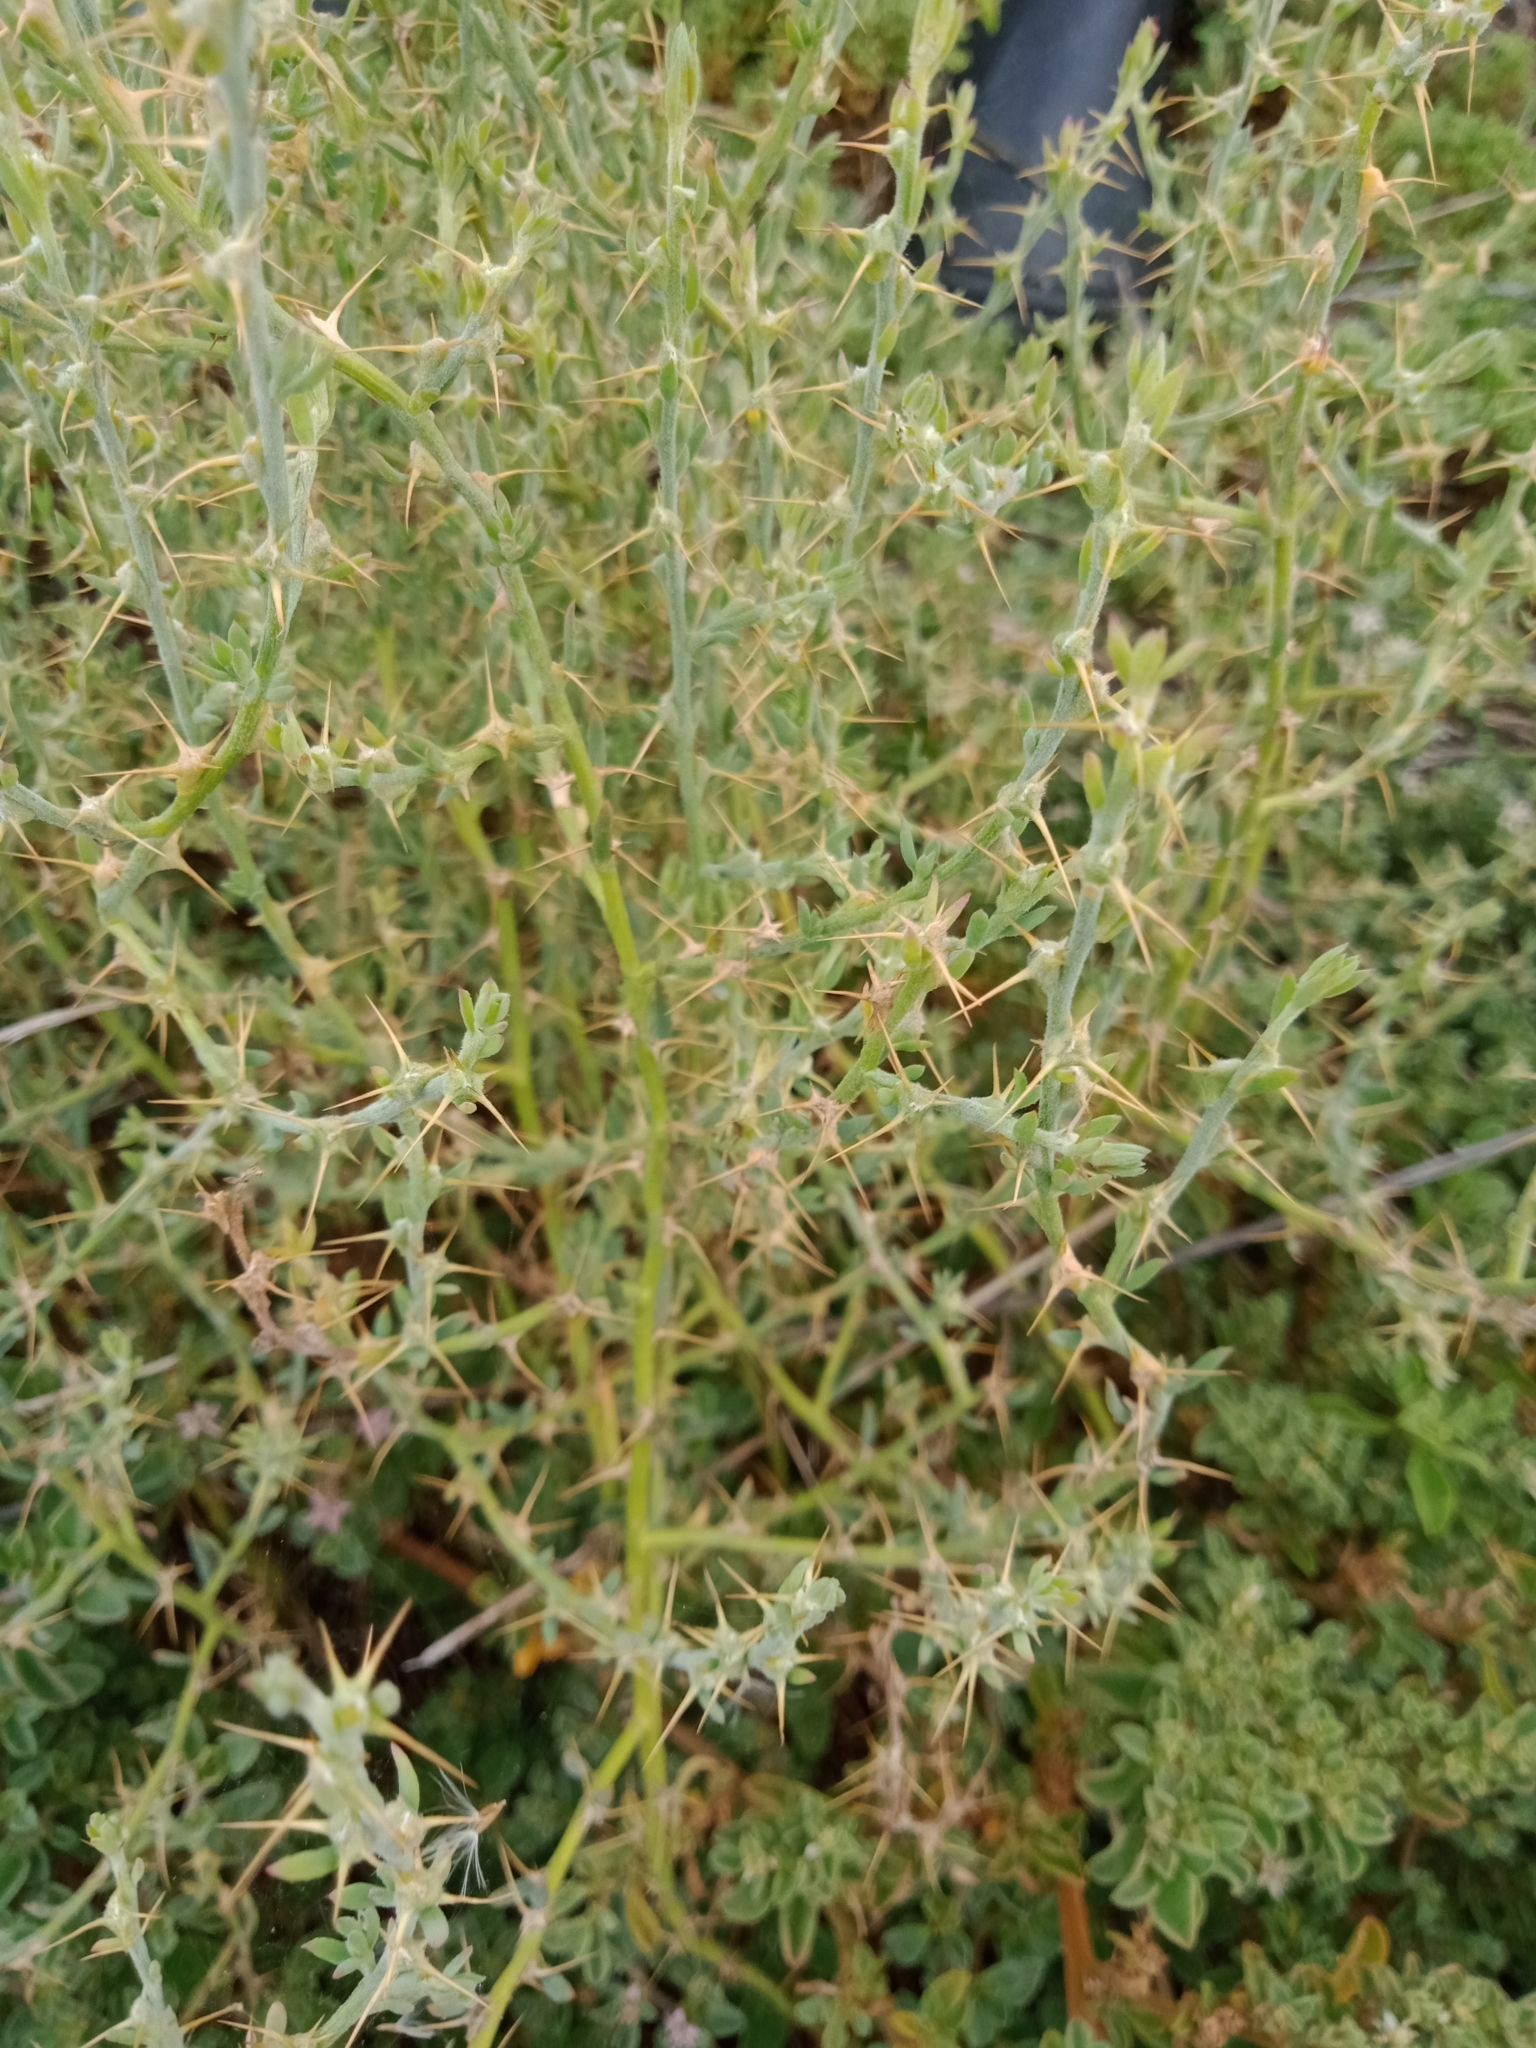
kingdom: Plantae
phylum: Tracheophyta
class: Magnoliopsida
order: Caryophyllales
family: Amaranthaceae
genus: Sclerolaena
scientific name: Sclerolaena muricata
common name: Roly-poly
